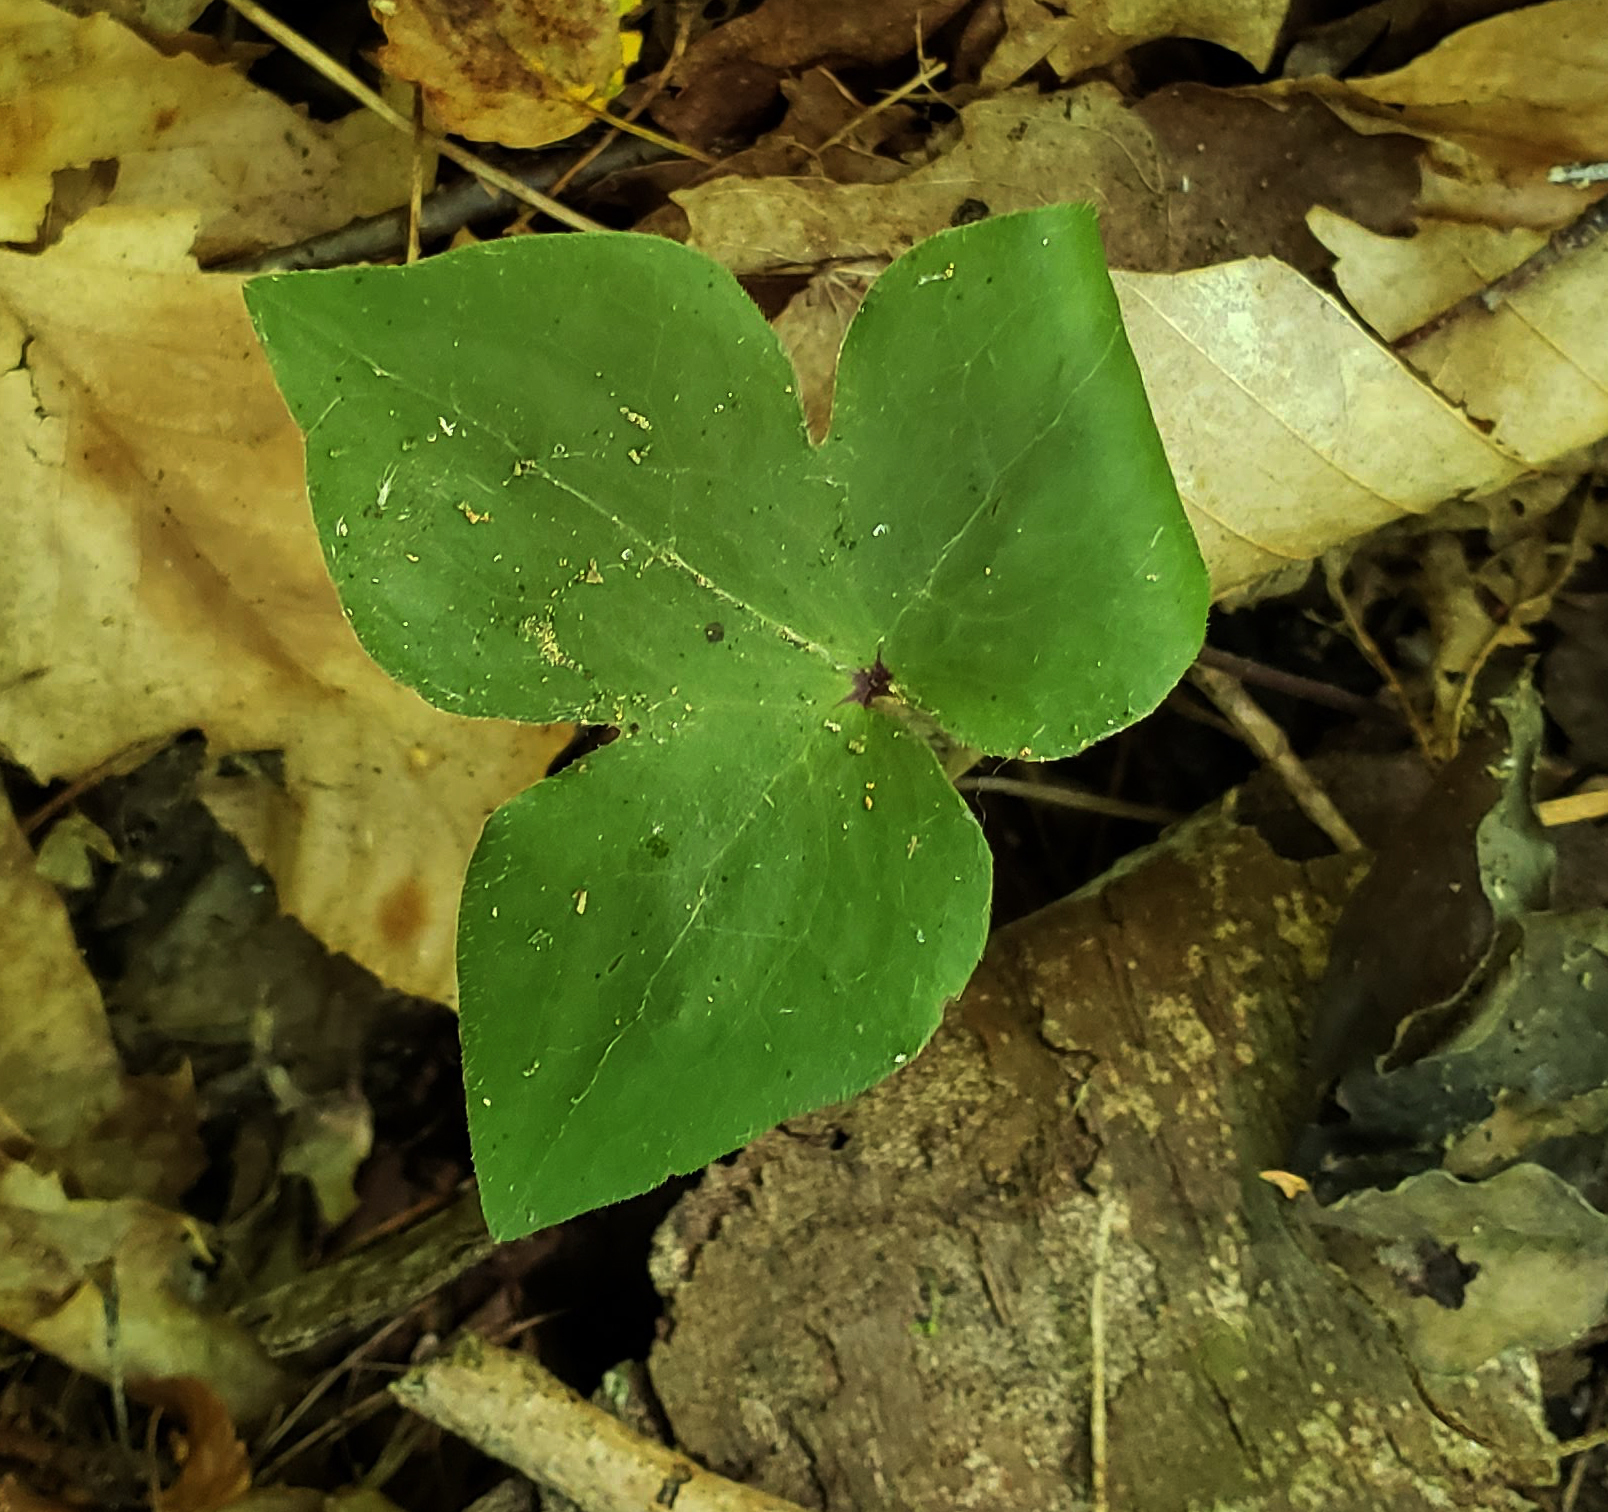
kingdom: Plantae
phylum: Tracheophyta
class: Magnoliopsida
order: Ranunculales
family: Ranunculaceae
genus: Hepatica
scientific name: Hepatica acutiloba
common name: Sharp-lobed hepatica
